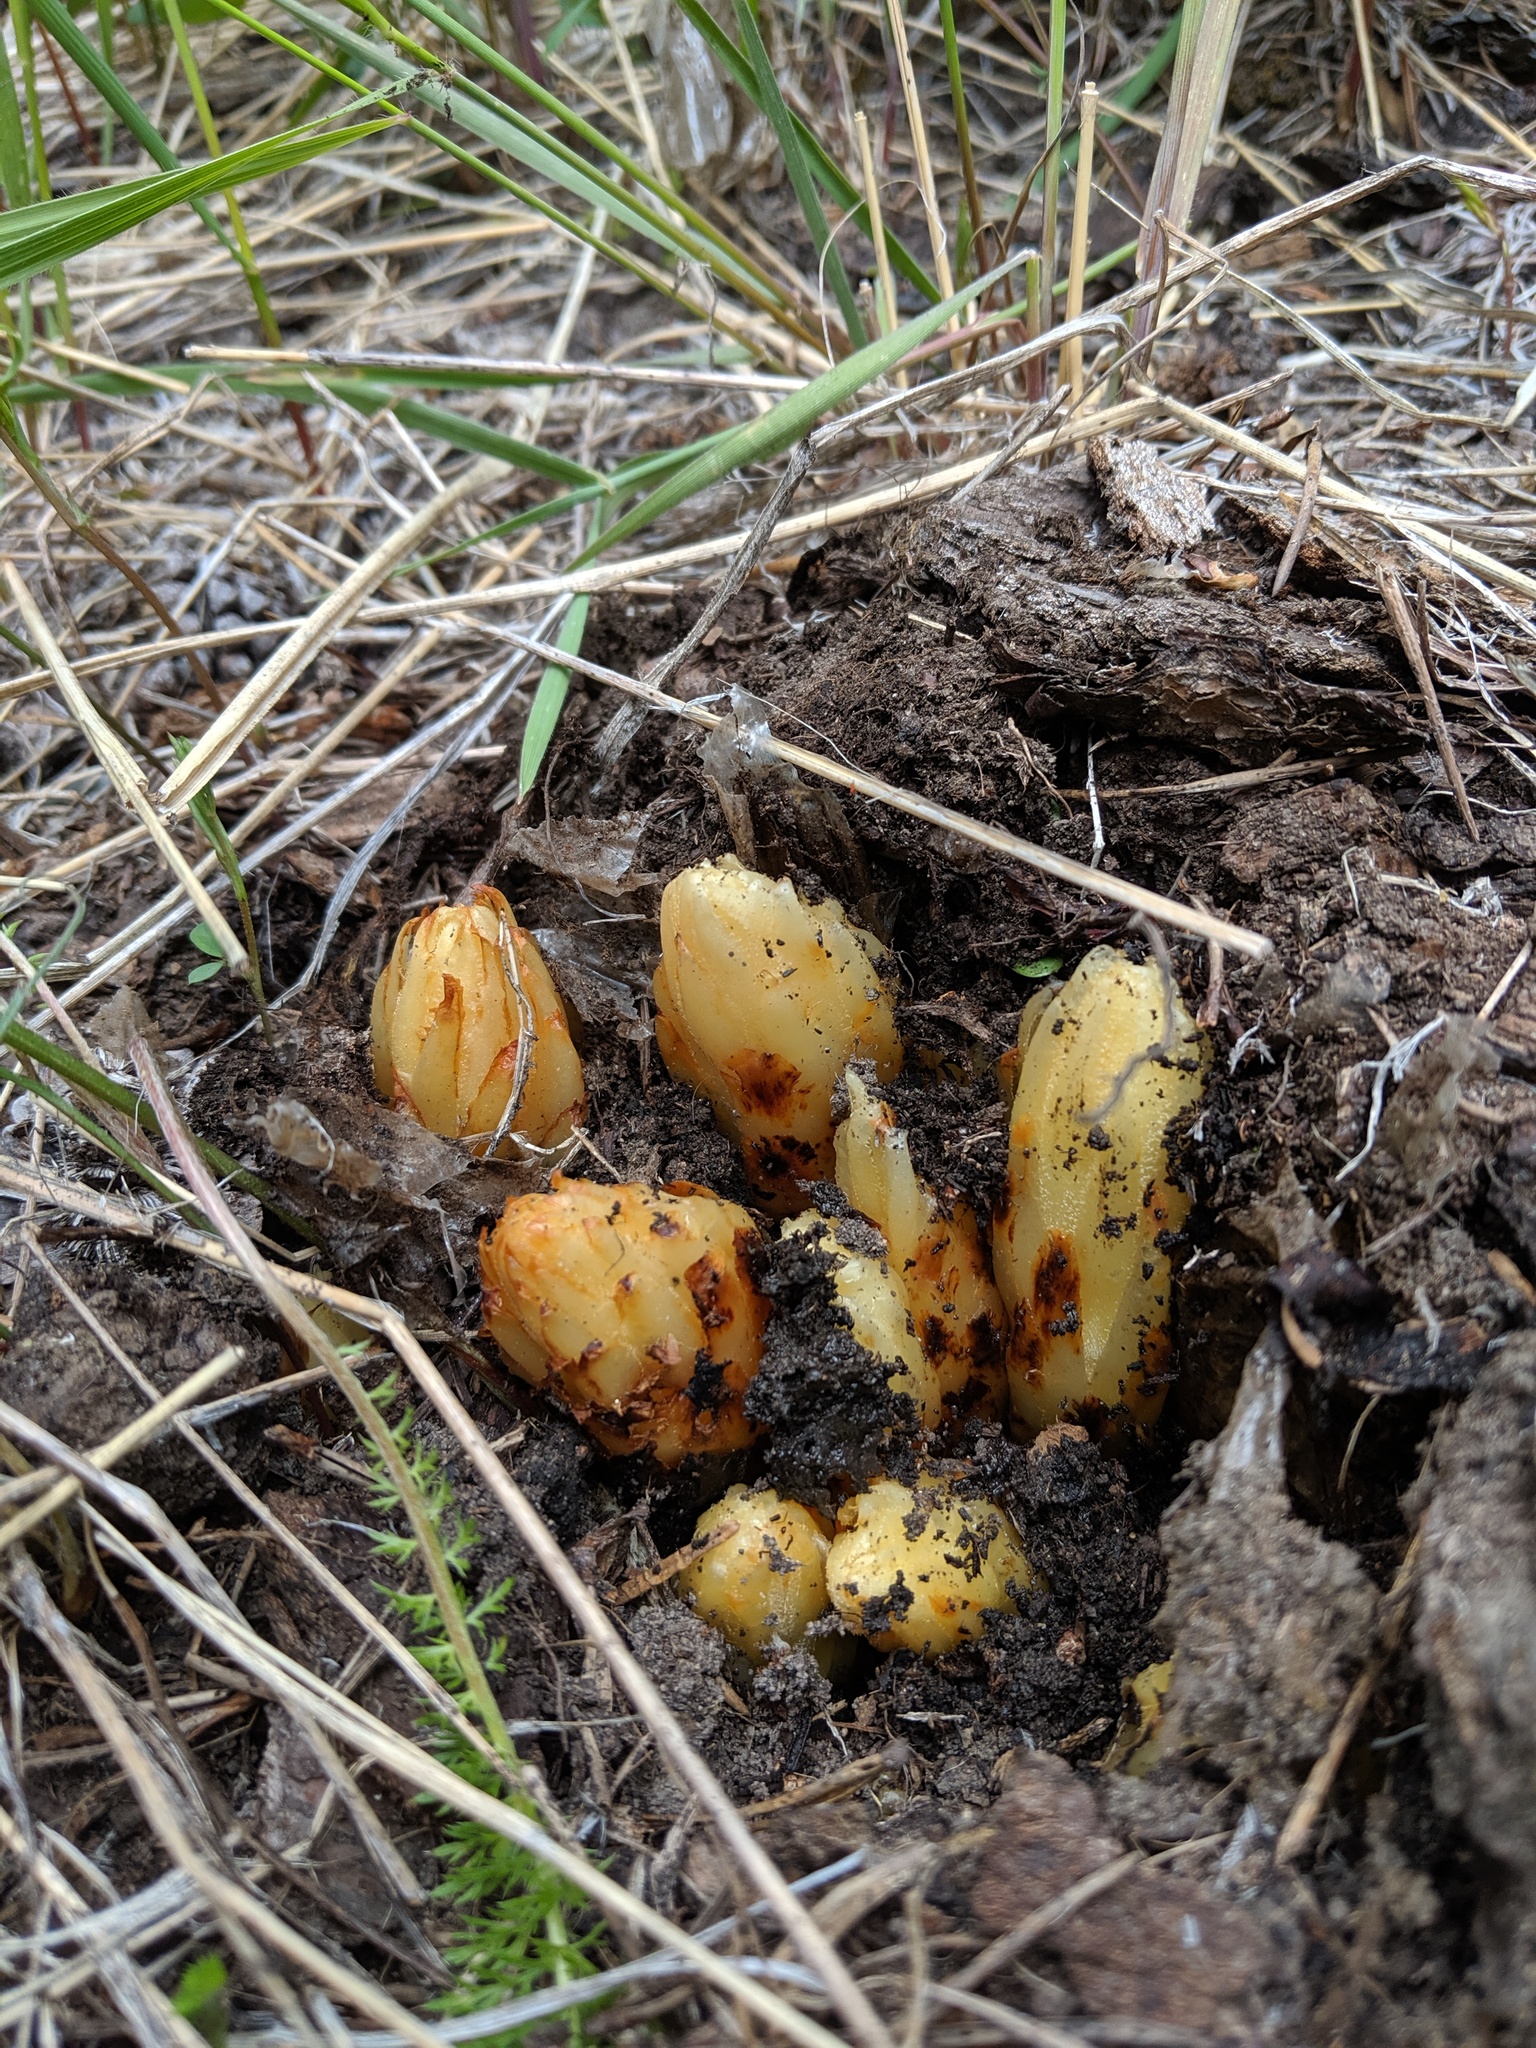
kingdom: Plantae
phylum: Tracheophyta
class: Magnoliopsida
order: Ericales
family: Ericaceae
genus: Pterospora
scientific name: Pterospora andromedea
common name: Giant bird's-nest
